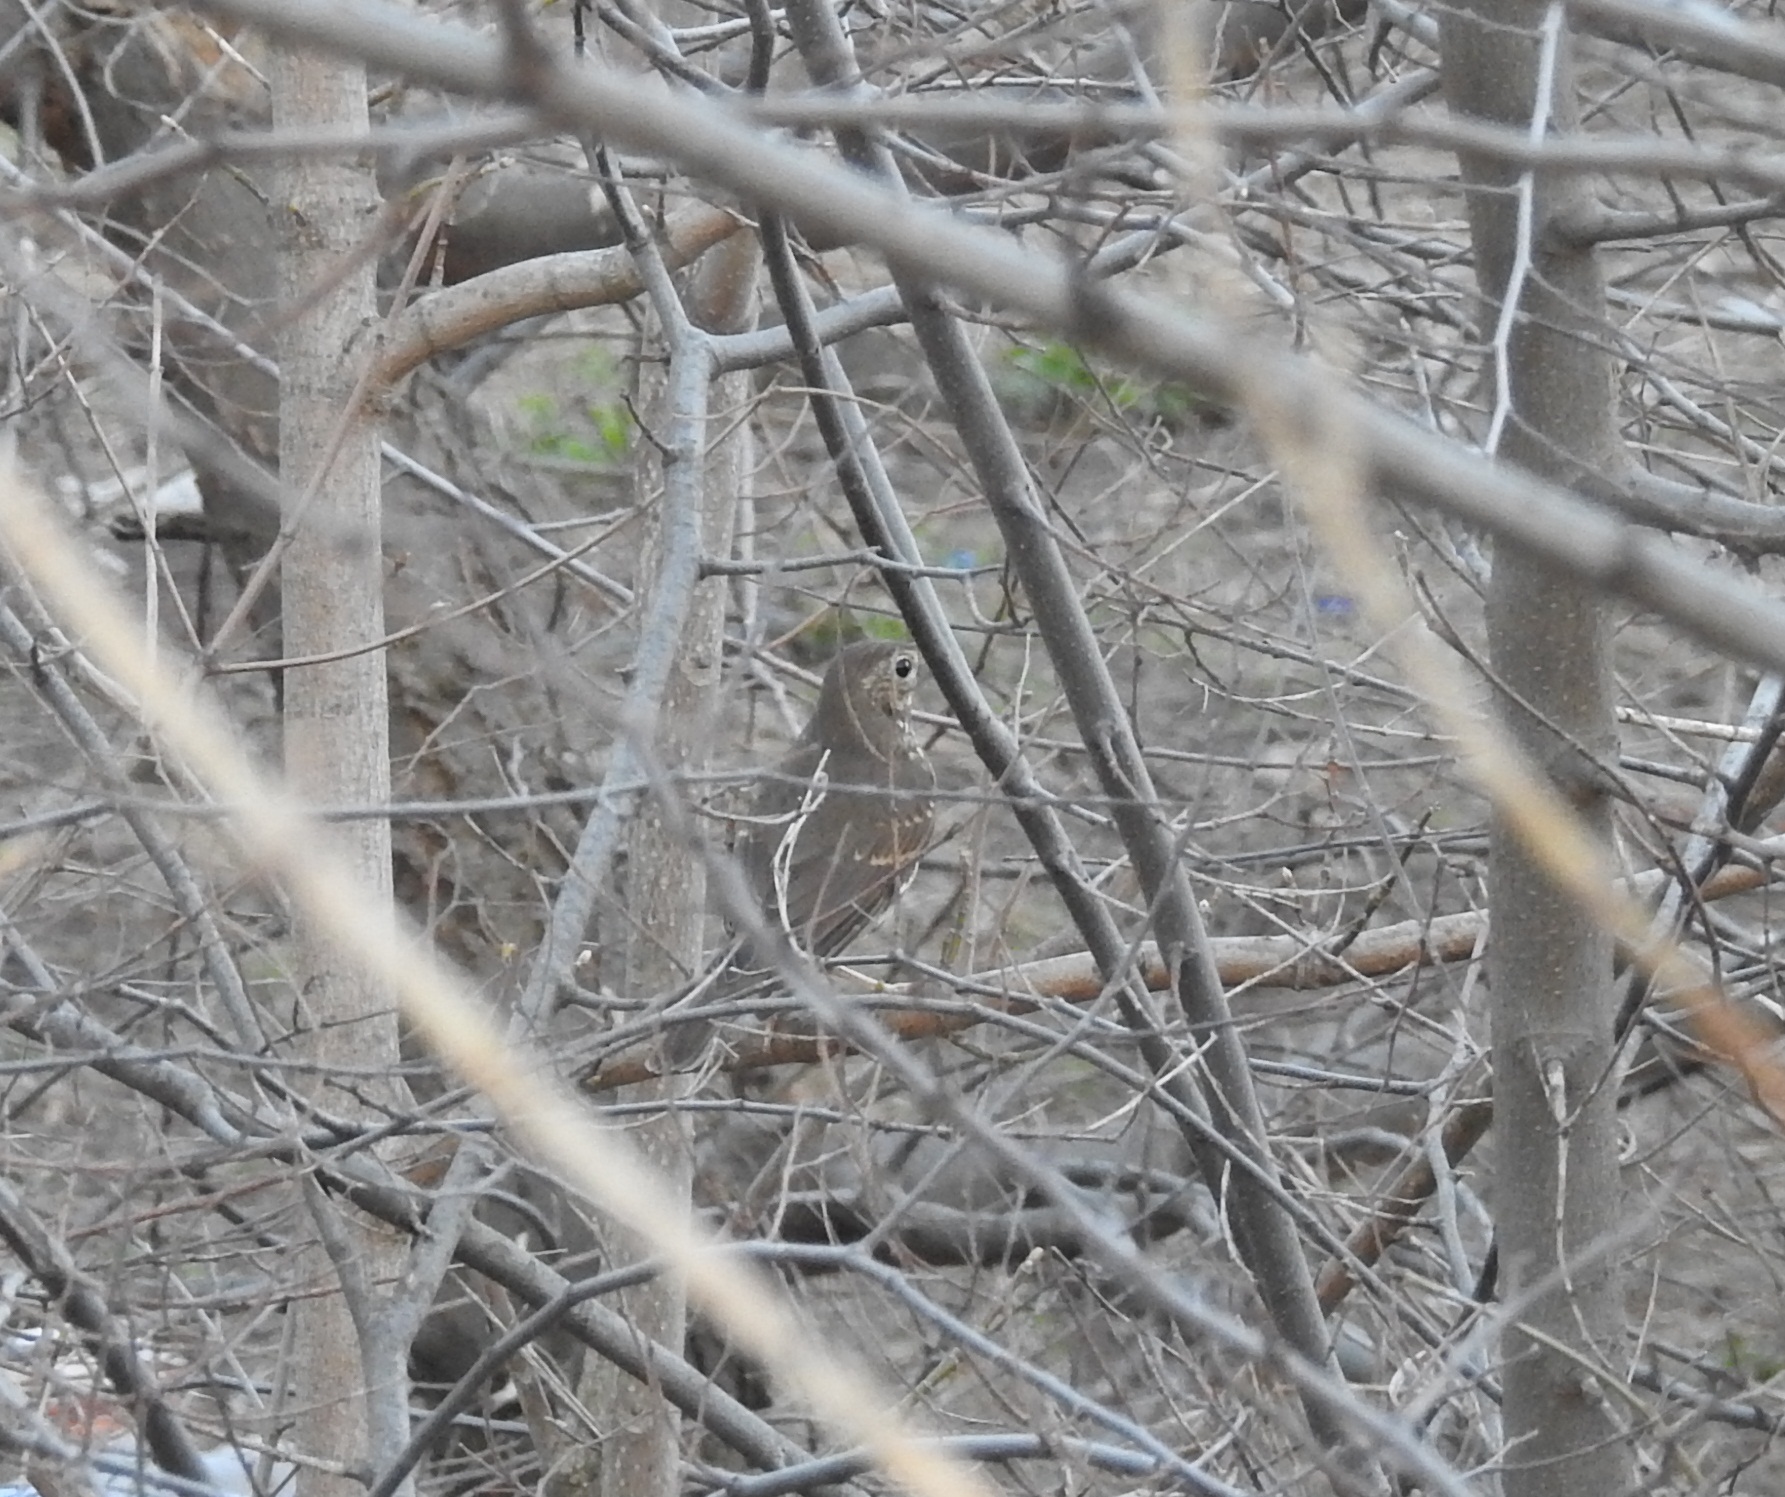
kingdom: Animalia
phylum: Chordata
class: Aves
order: Passeriformes
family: Turdidae
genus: Turdus
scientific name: Turdus philomelos
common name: Song thrush
